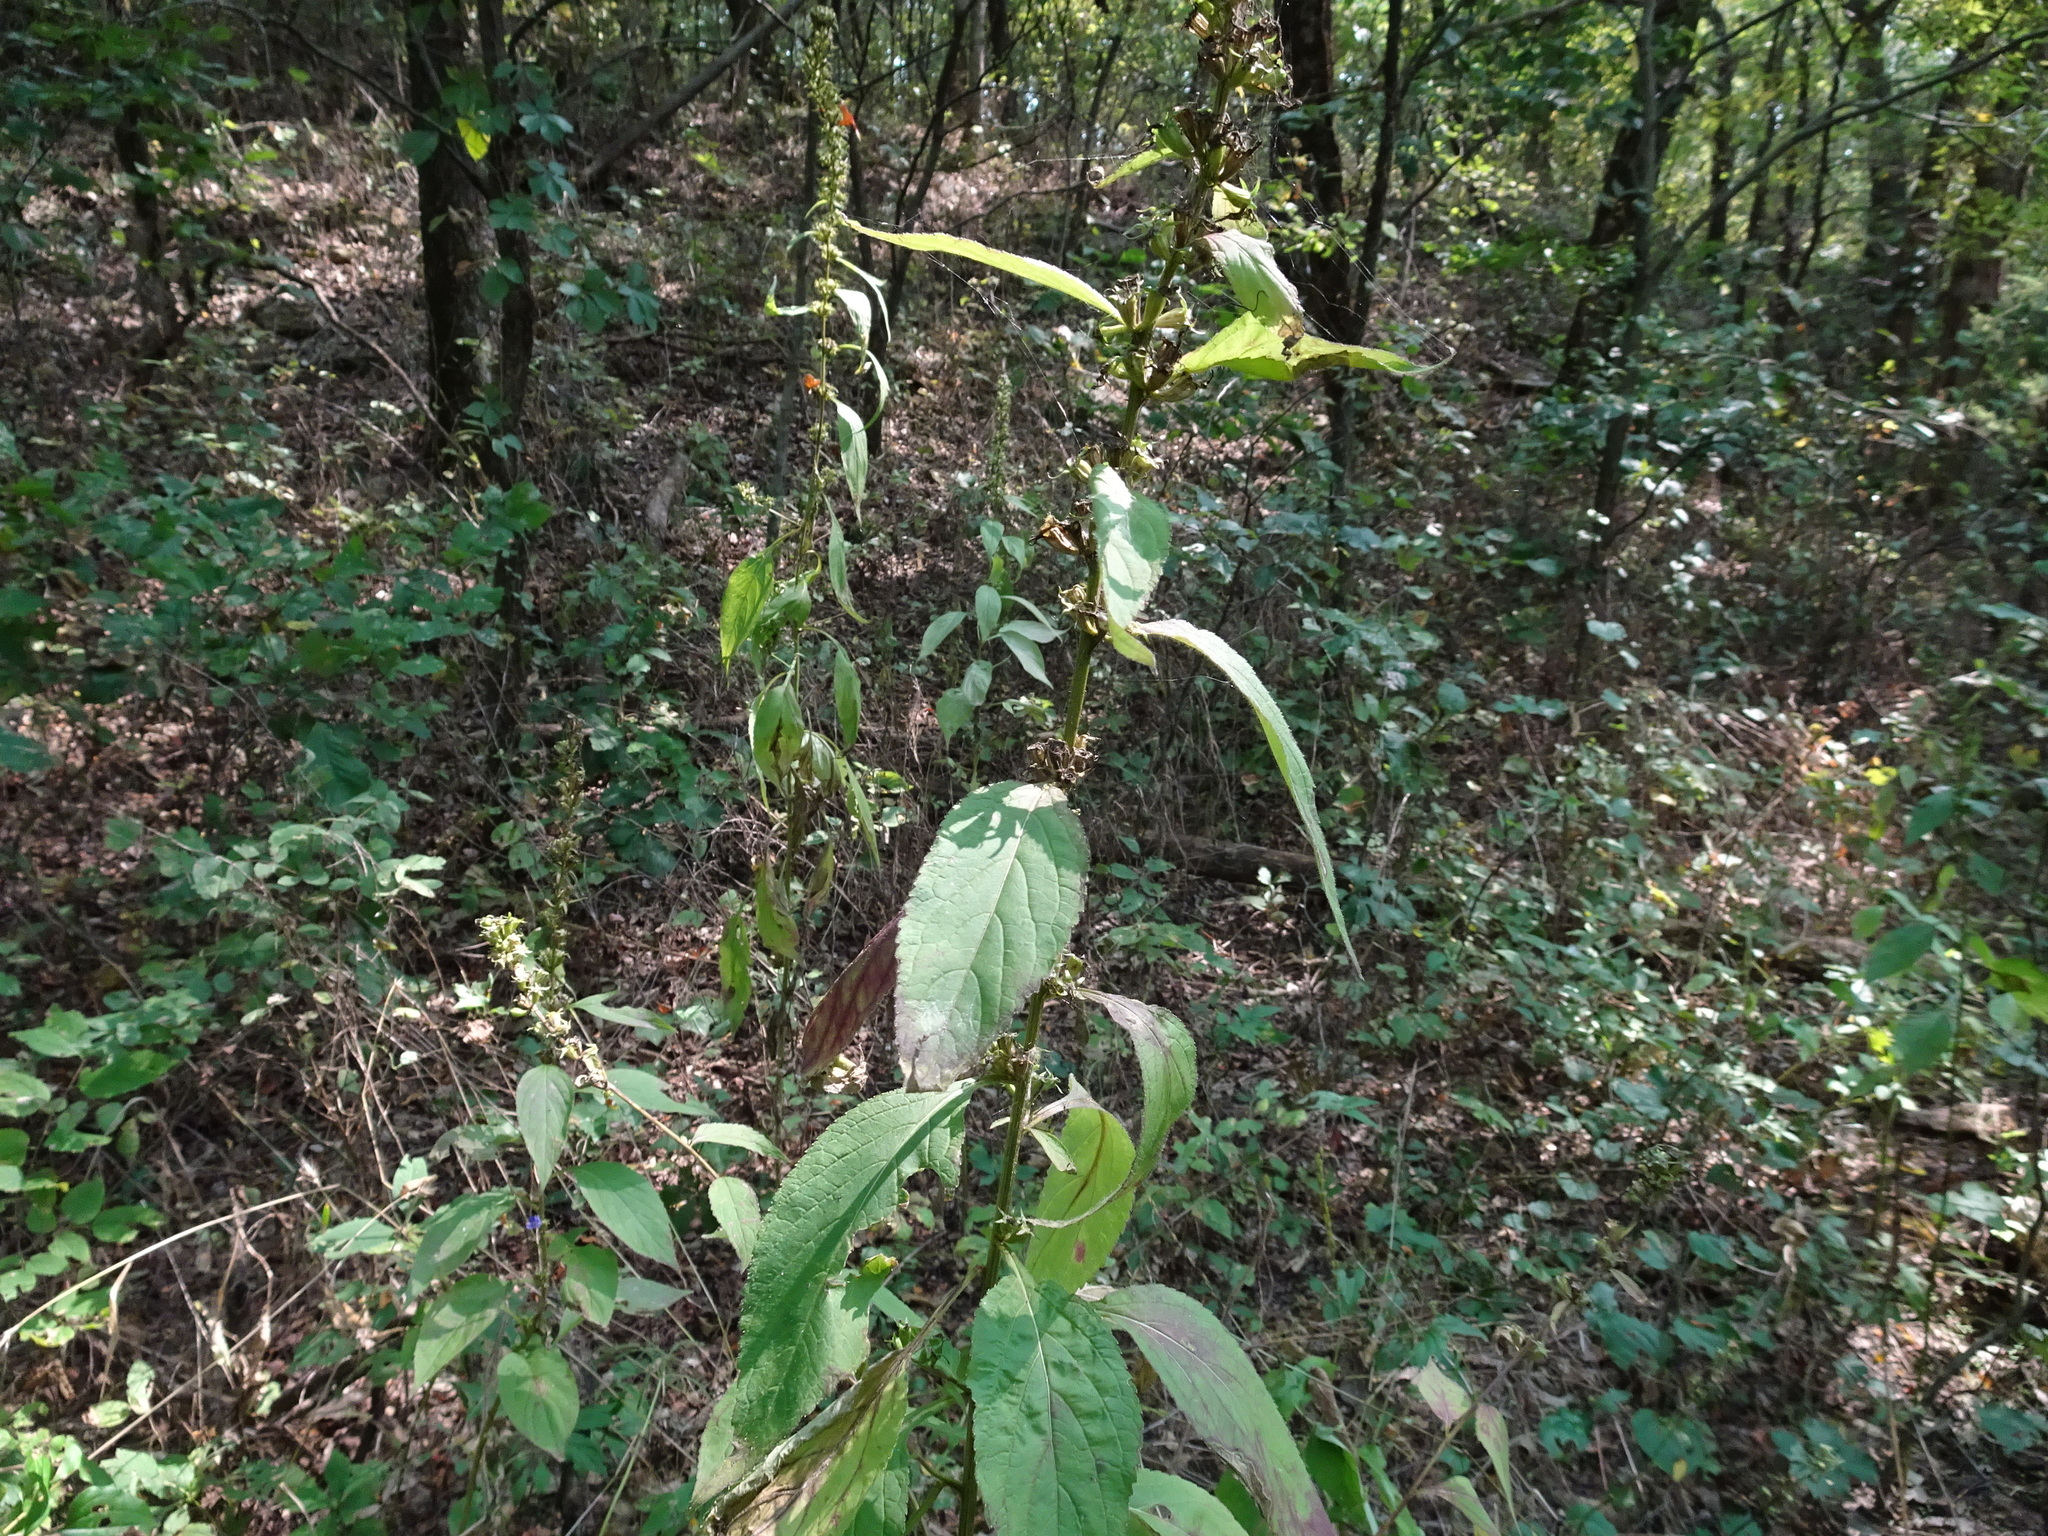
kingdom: Plantae
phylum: Tracheophyta
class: Magnoliopsida
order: Asterales
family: Campanulaceae
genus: Campanulastrum
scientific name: Campanulastrum americanum
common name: American bellflower
